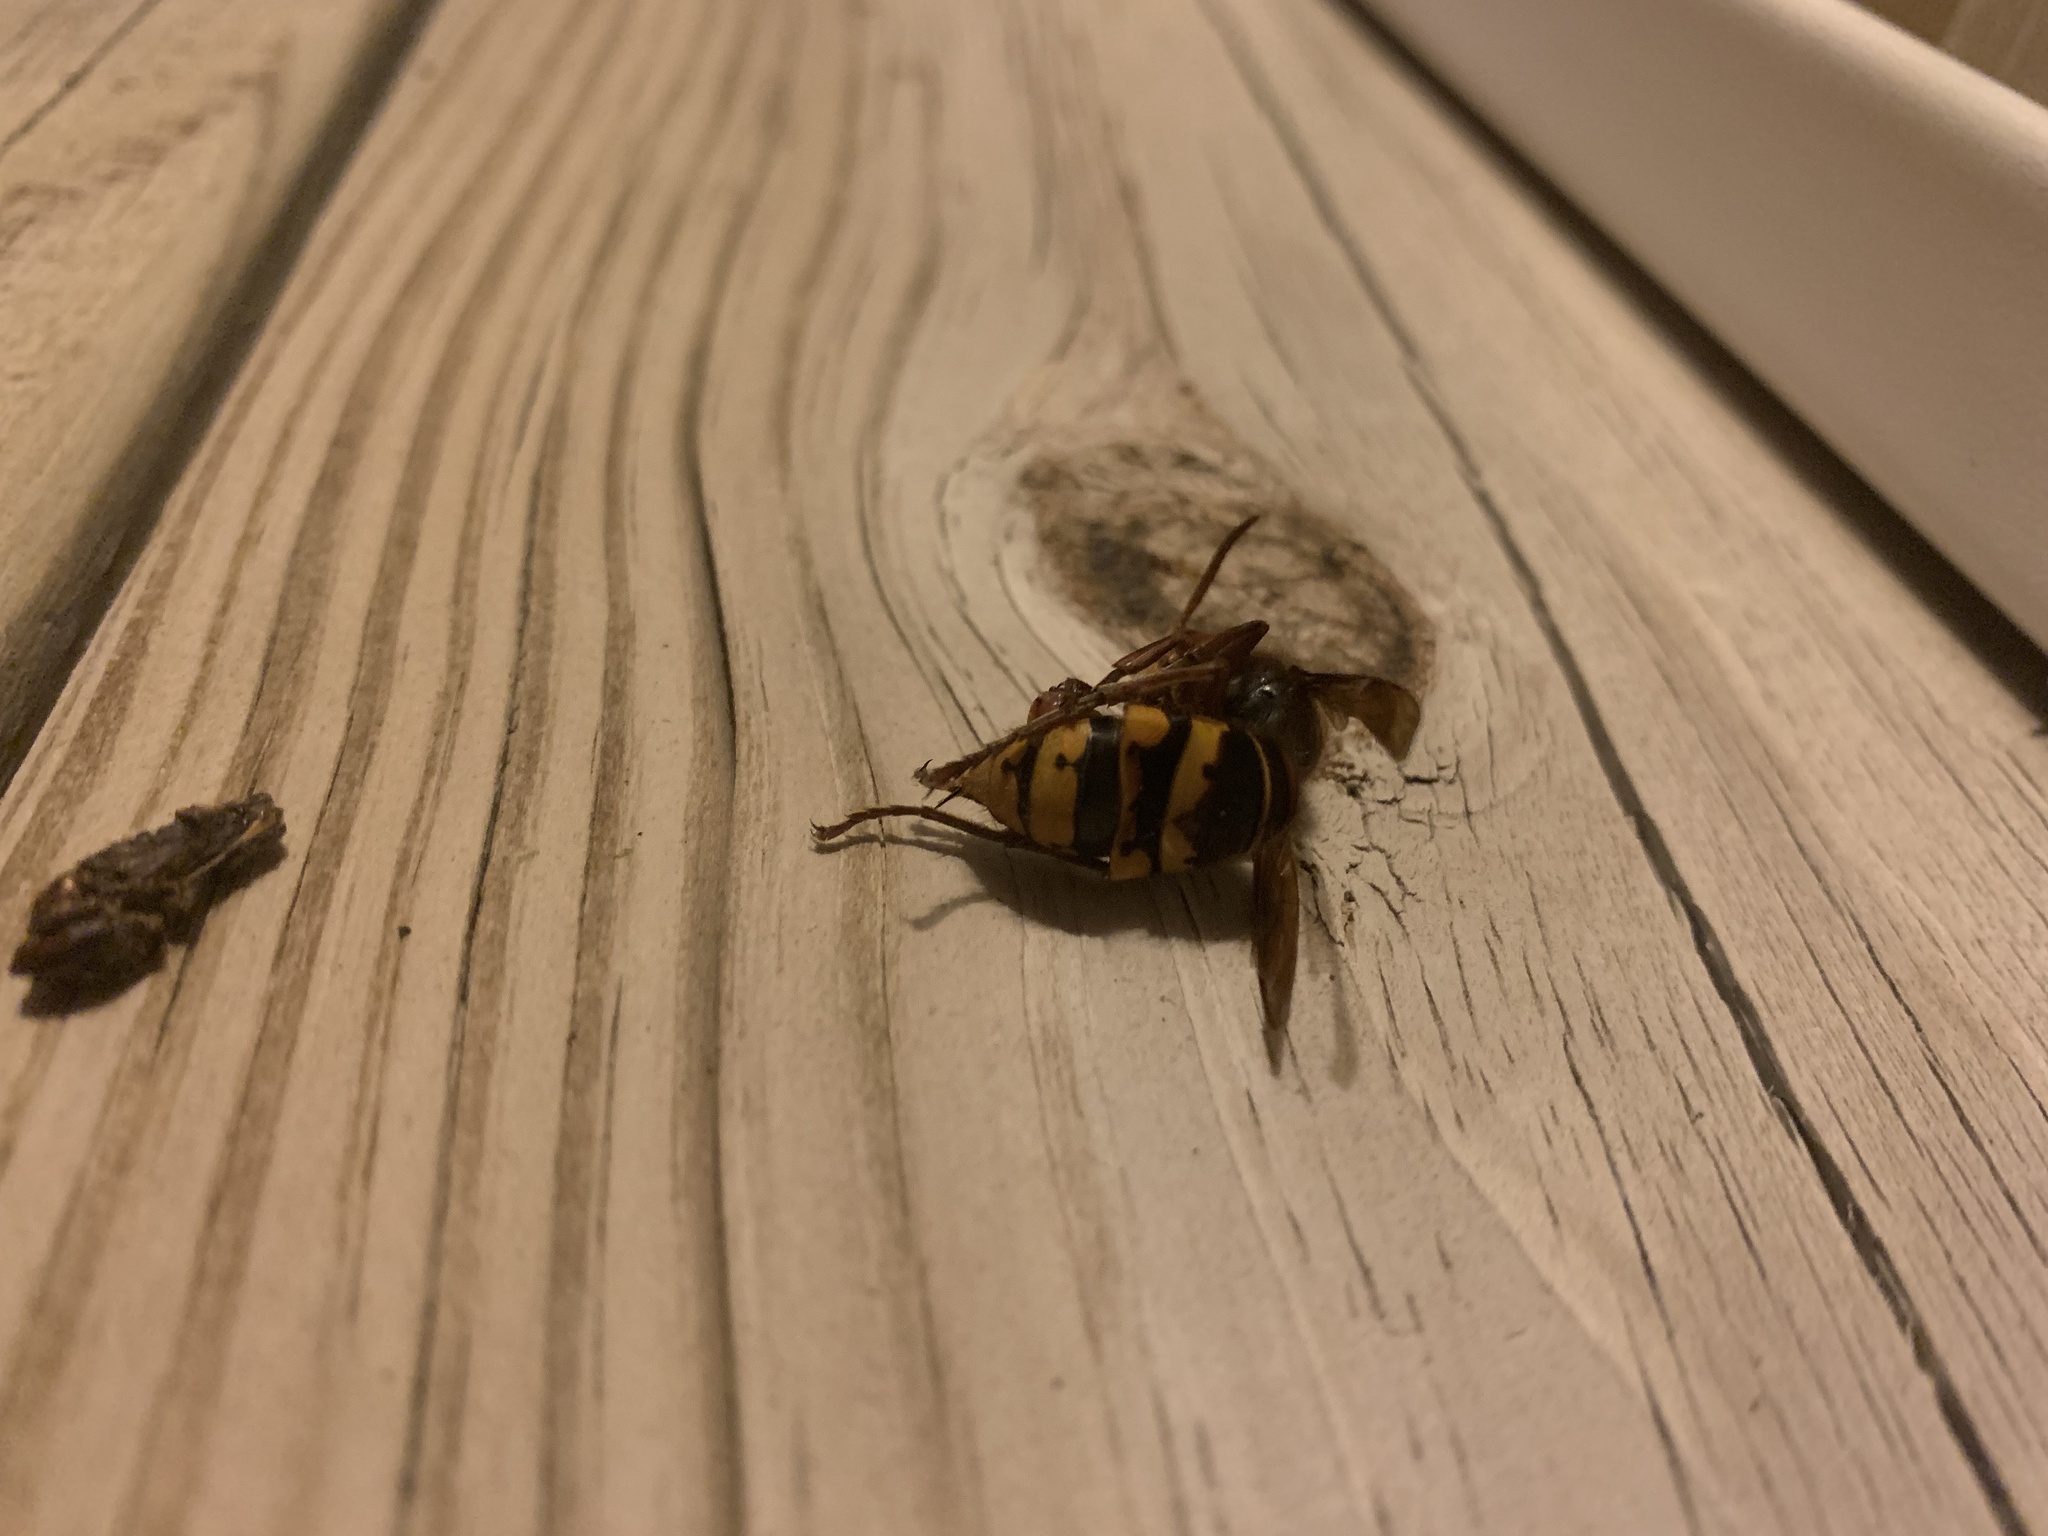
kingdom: Animalia
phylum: Arthropoda
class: Insecta
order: Hymenoptera
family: Vespidae
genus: Vespa
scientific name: Vespa crabro
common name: Hornet
